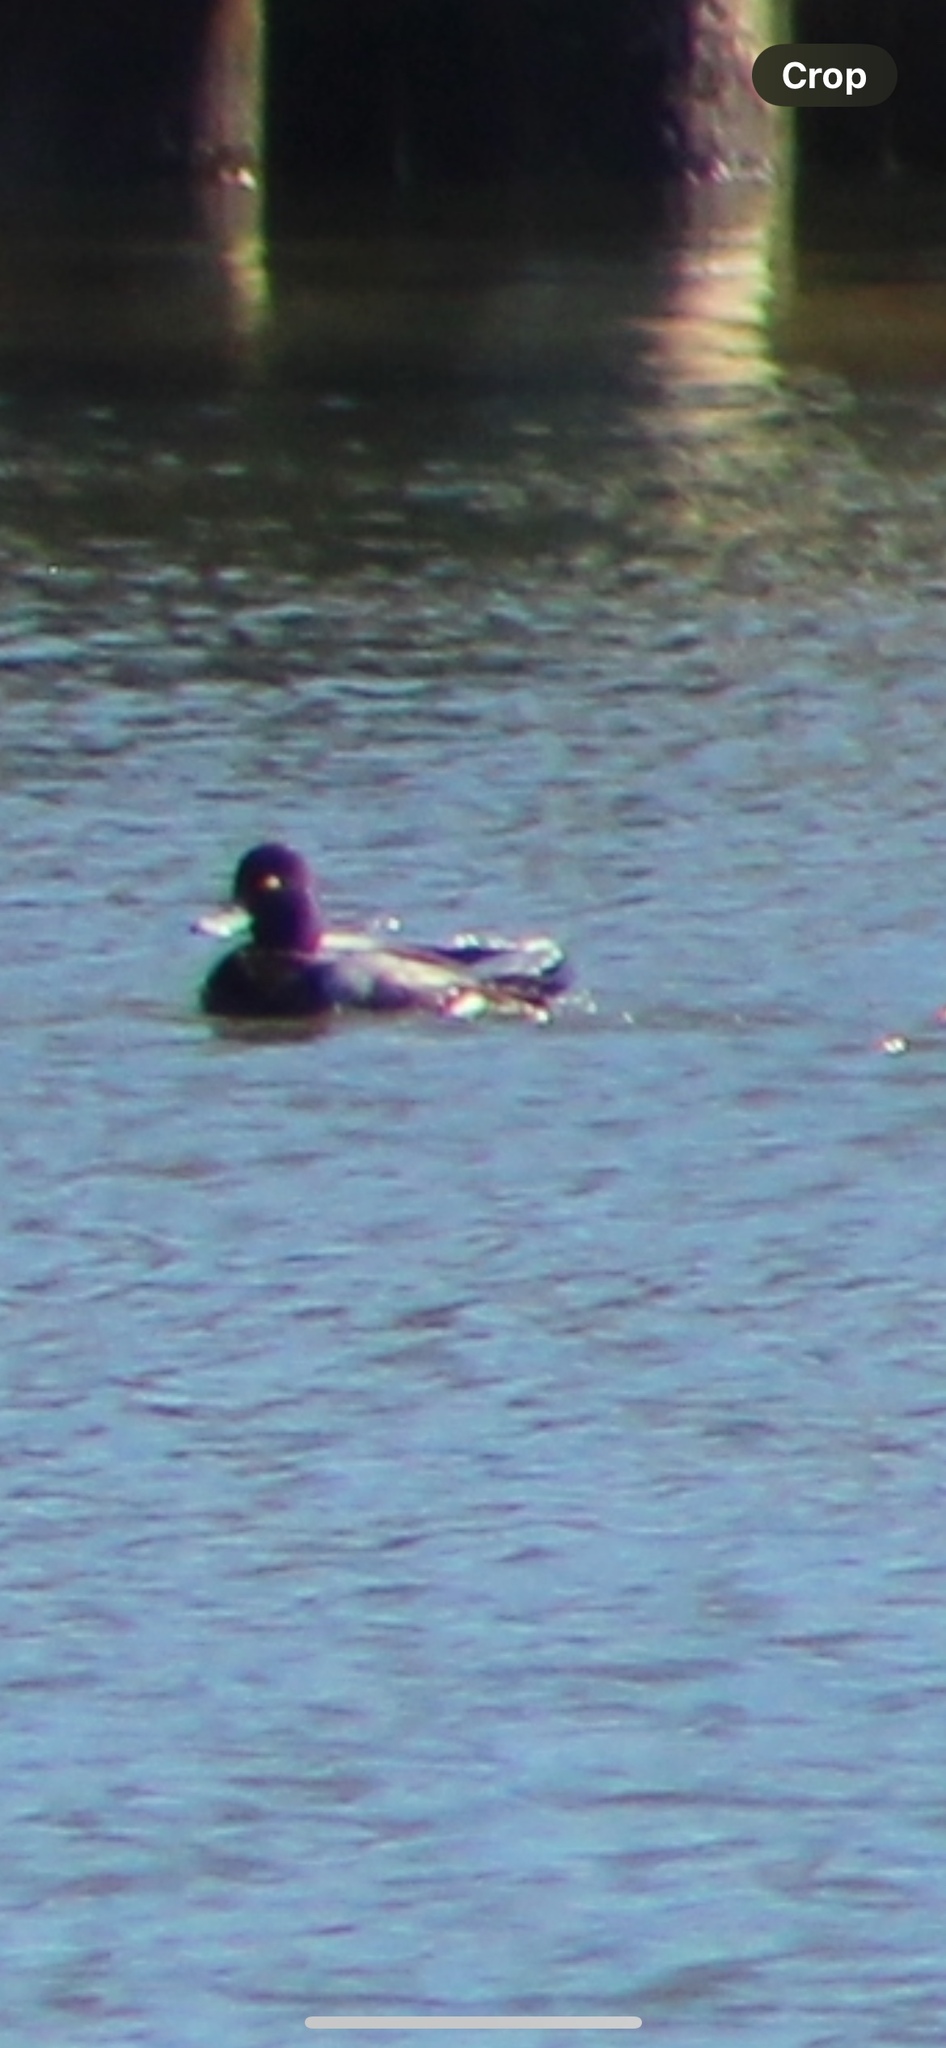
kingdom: Animalia
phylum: Chordata
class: Aves
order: Anseriformes
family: Anatidae
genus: Aythya
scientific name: Aythya affinis
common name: Lesser scaup
